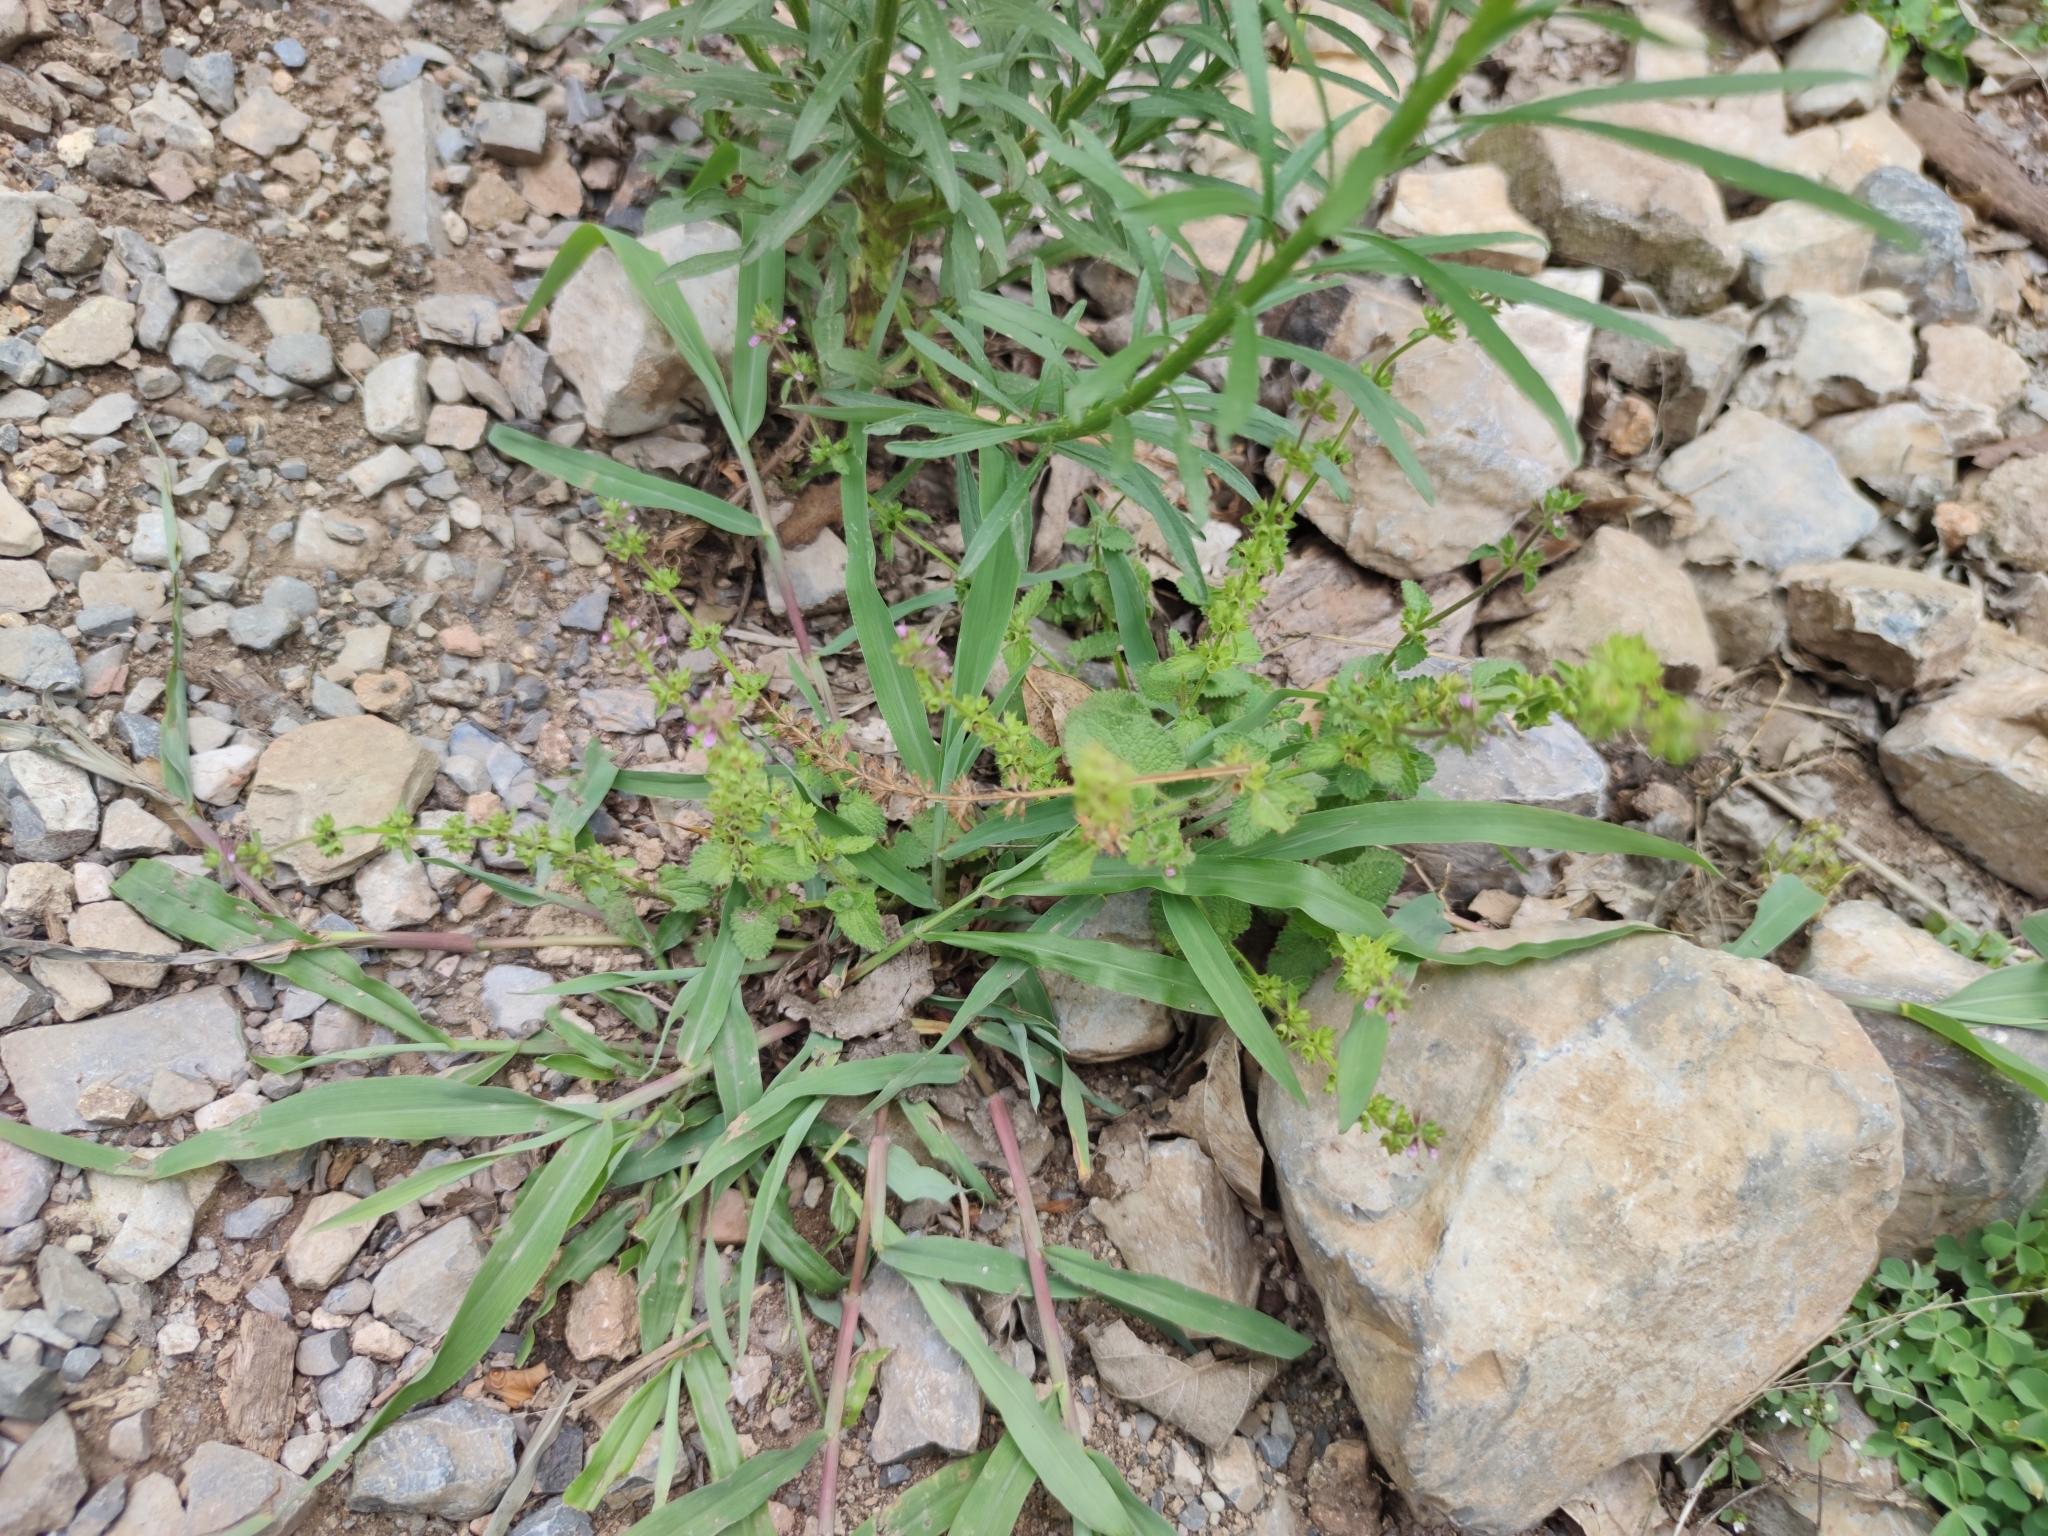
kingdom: Plantae
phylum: Tracheophyta
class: Magnoliopsida
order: Lamiales
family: Lamiaceae
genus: Stachys
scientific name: Stachys drummondii
